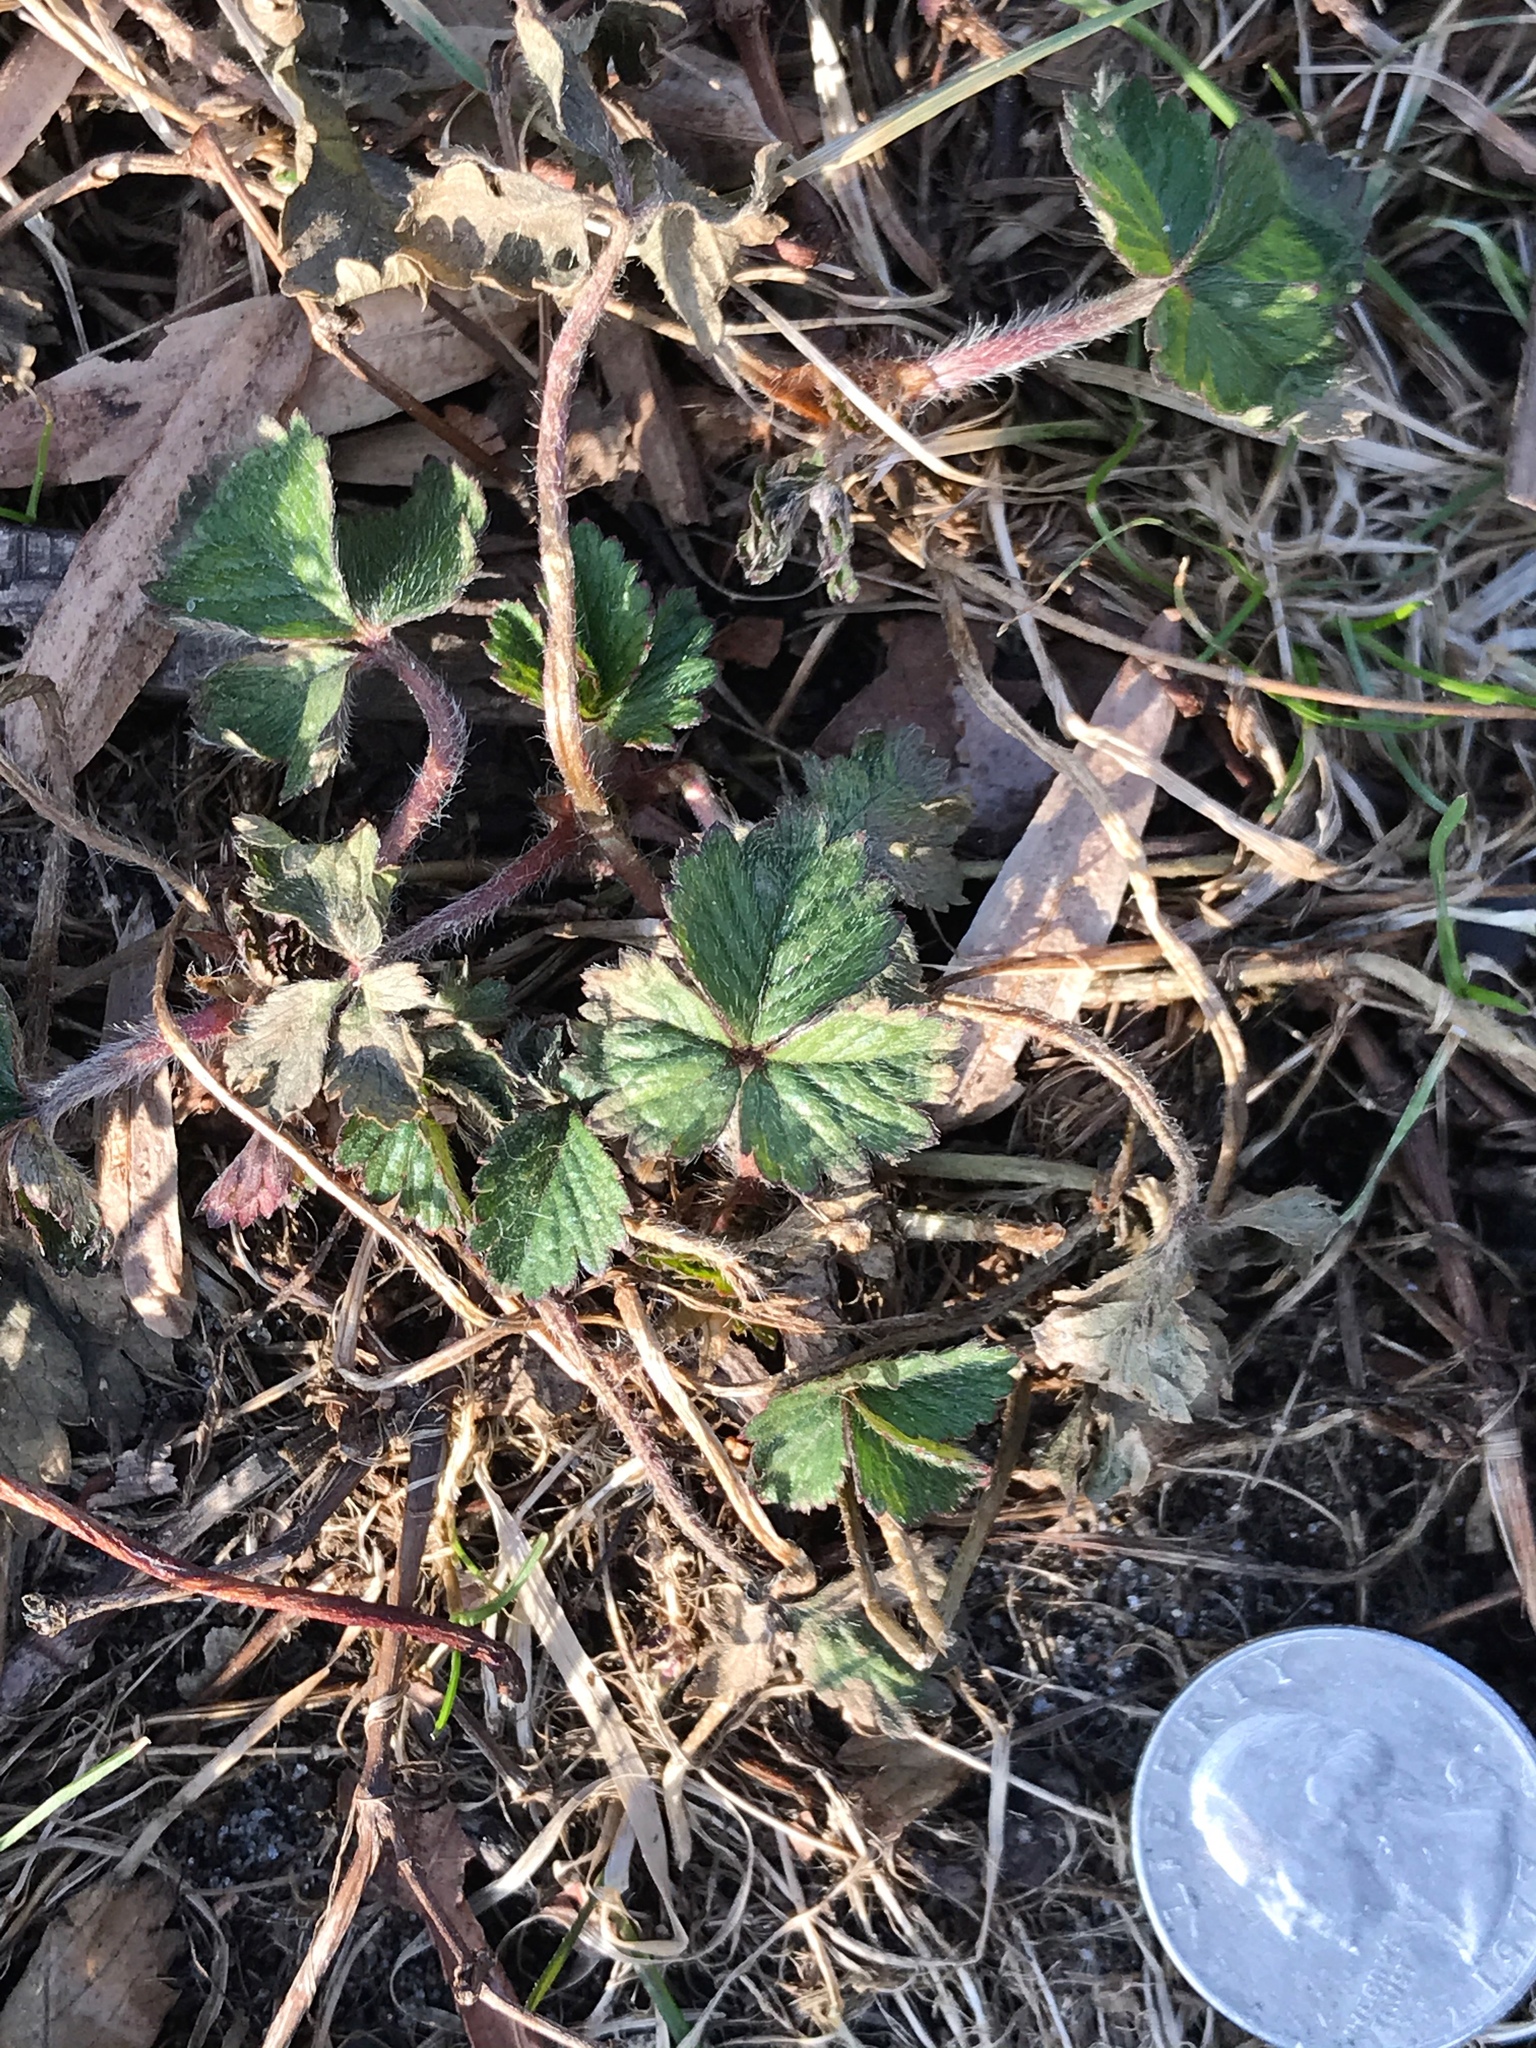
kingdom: Plantae
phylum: Tracheophyta
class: Magnoliopsida
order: Rosales
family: Rosaceae
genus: Potentilla
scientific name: Potentilla indica
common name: Yellow-flowered strawberry
